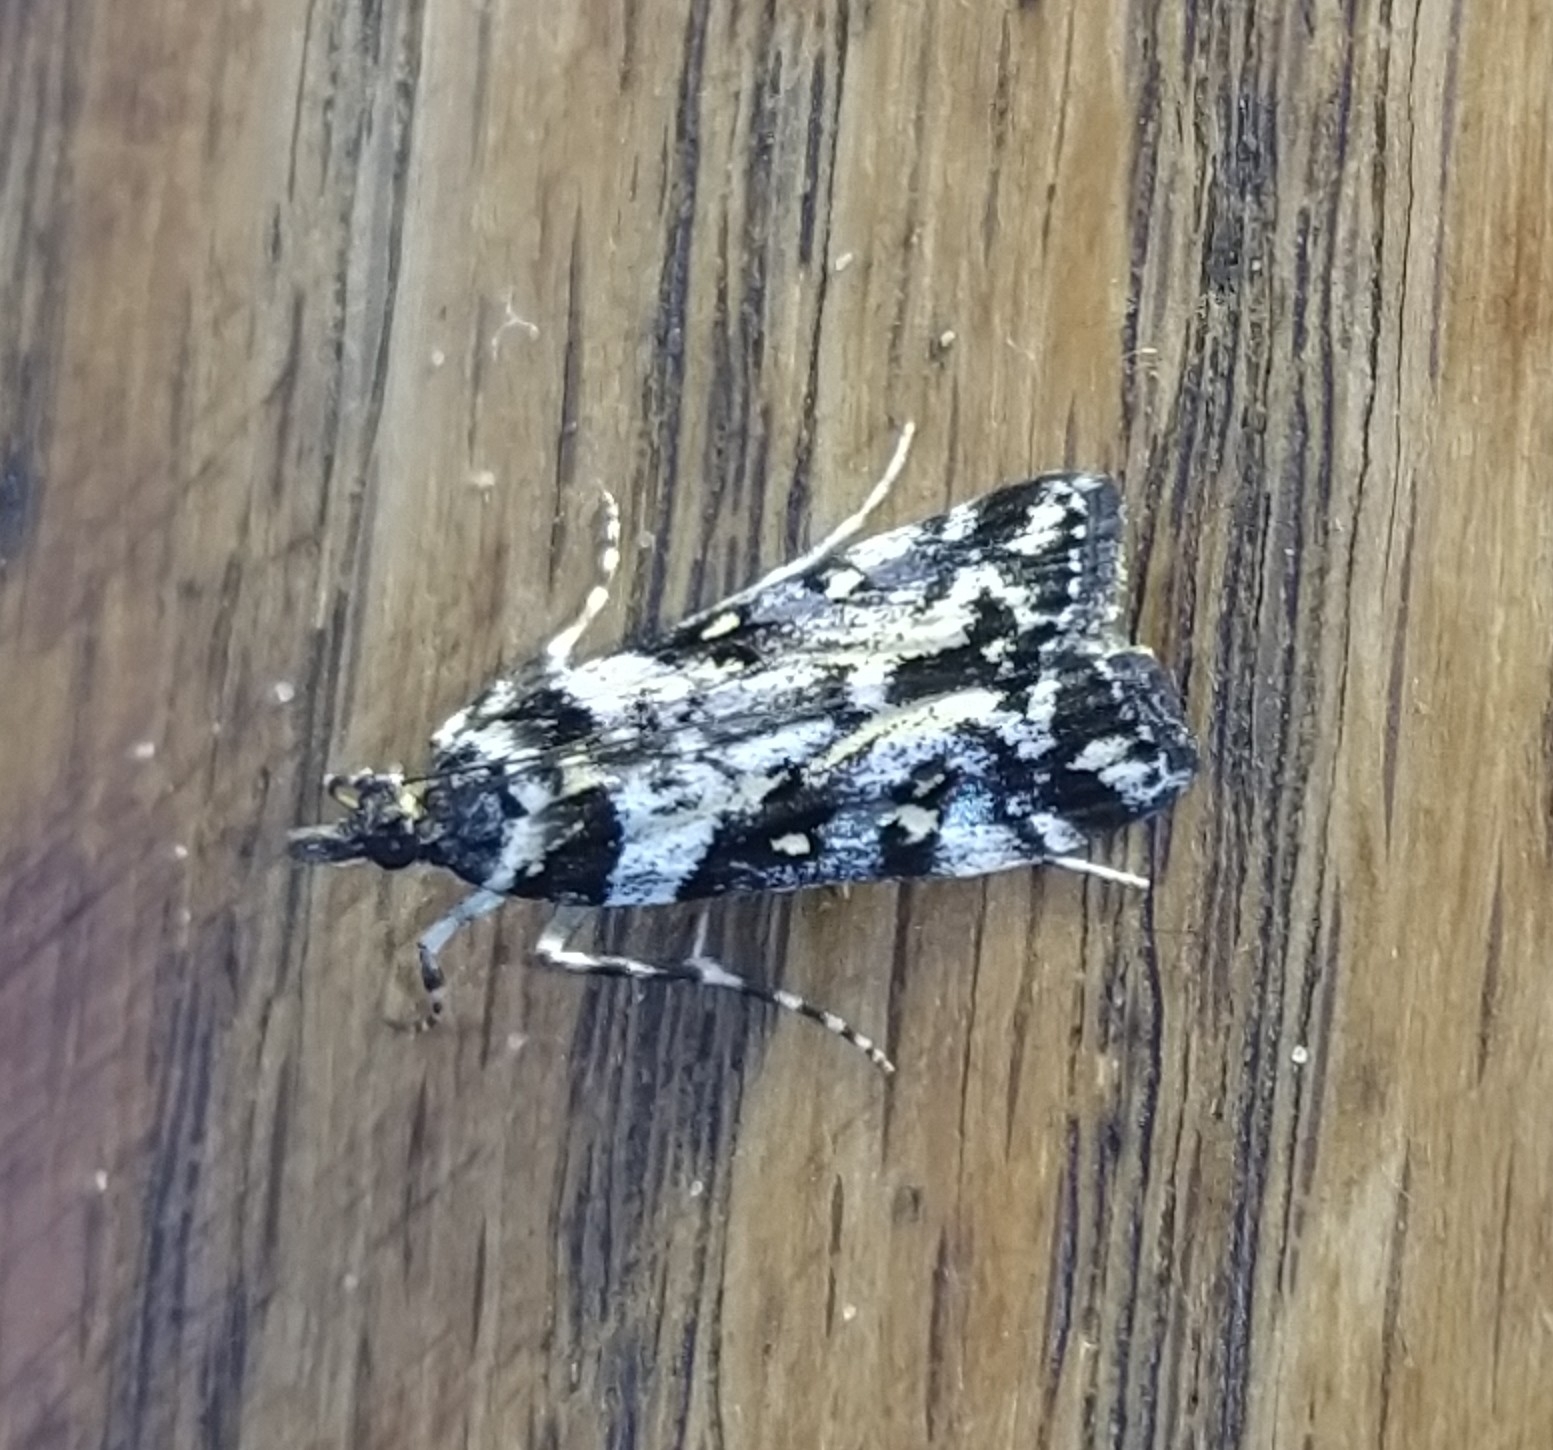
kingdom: Animalia
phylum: Arthropoda
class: Insecta
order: Lepidoptera
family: Crambidae
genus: Eudonia
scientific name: Eudonia diphtheralis
